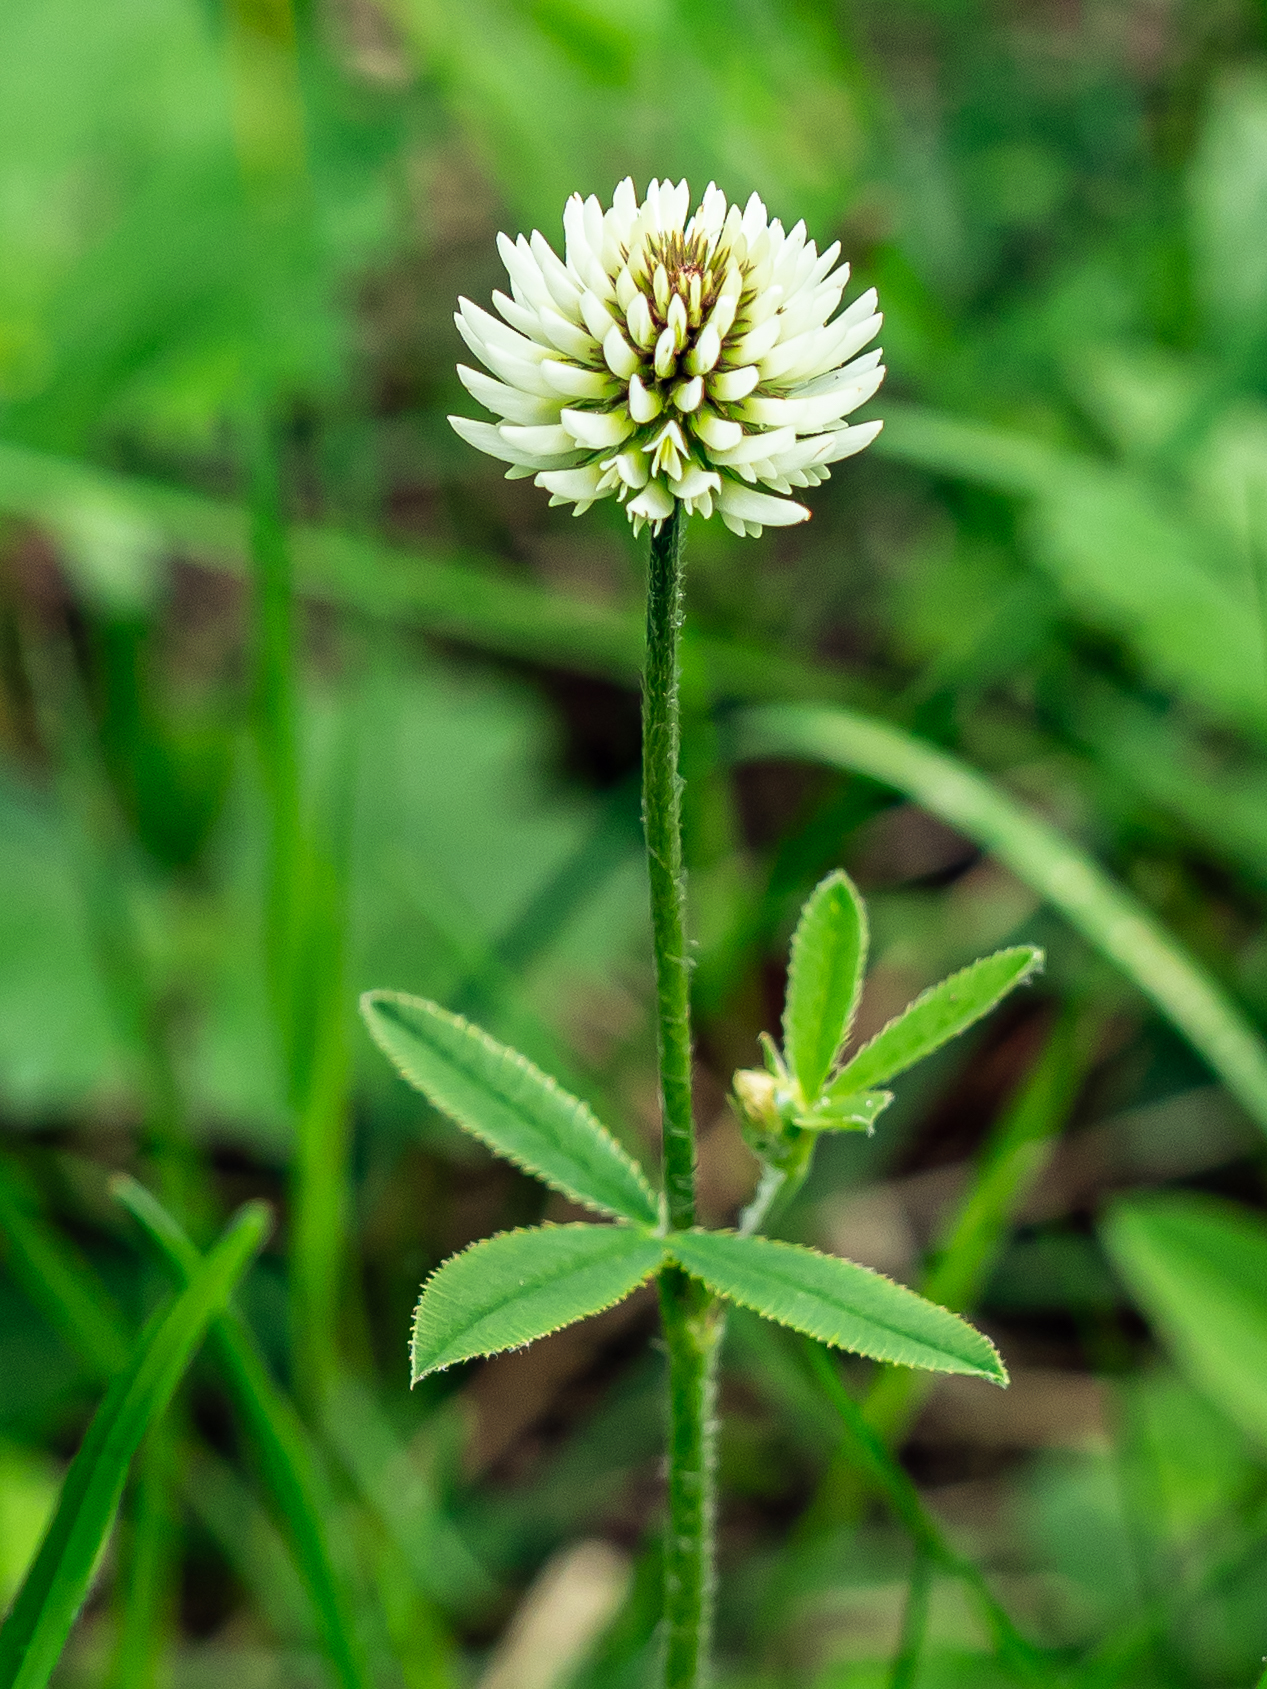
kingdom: Plantae
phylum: Tracheophyta
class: Magnoliopsida
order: Fabales
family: Fabaceae
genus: Trifolium
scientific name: Trifolium montanum
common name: Mountain clover
